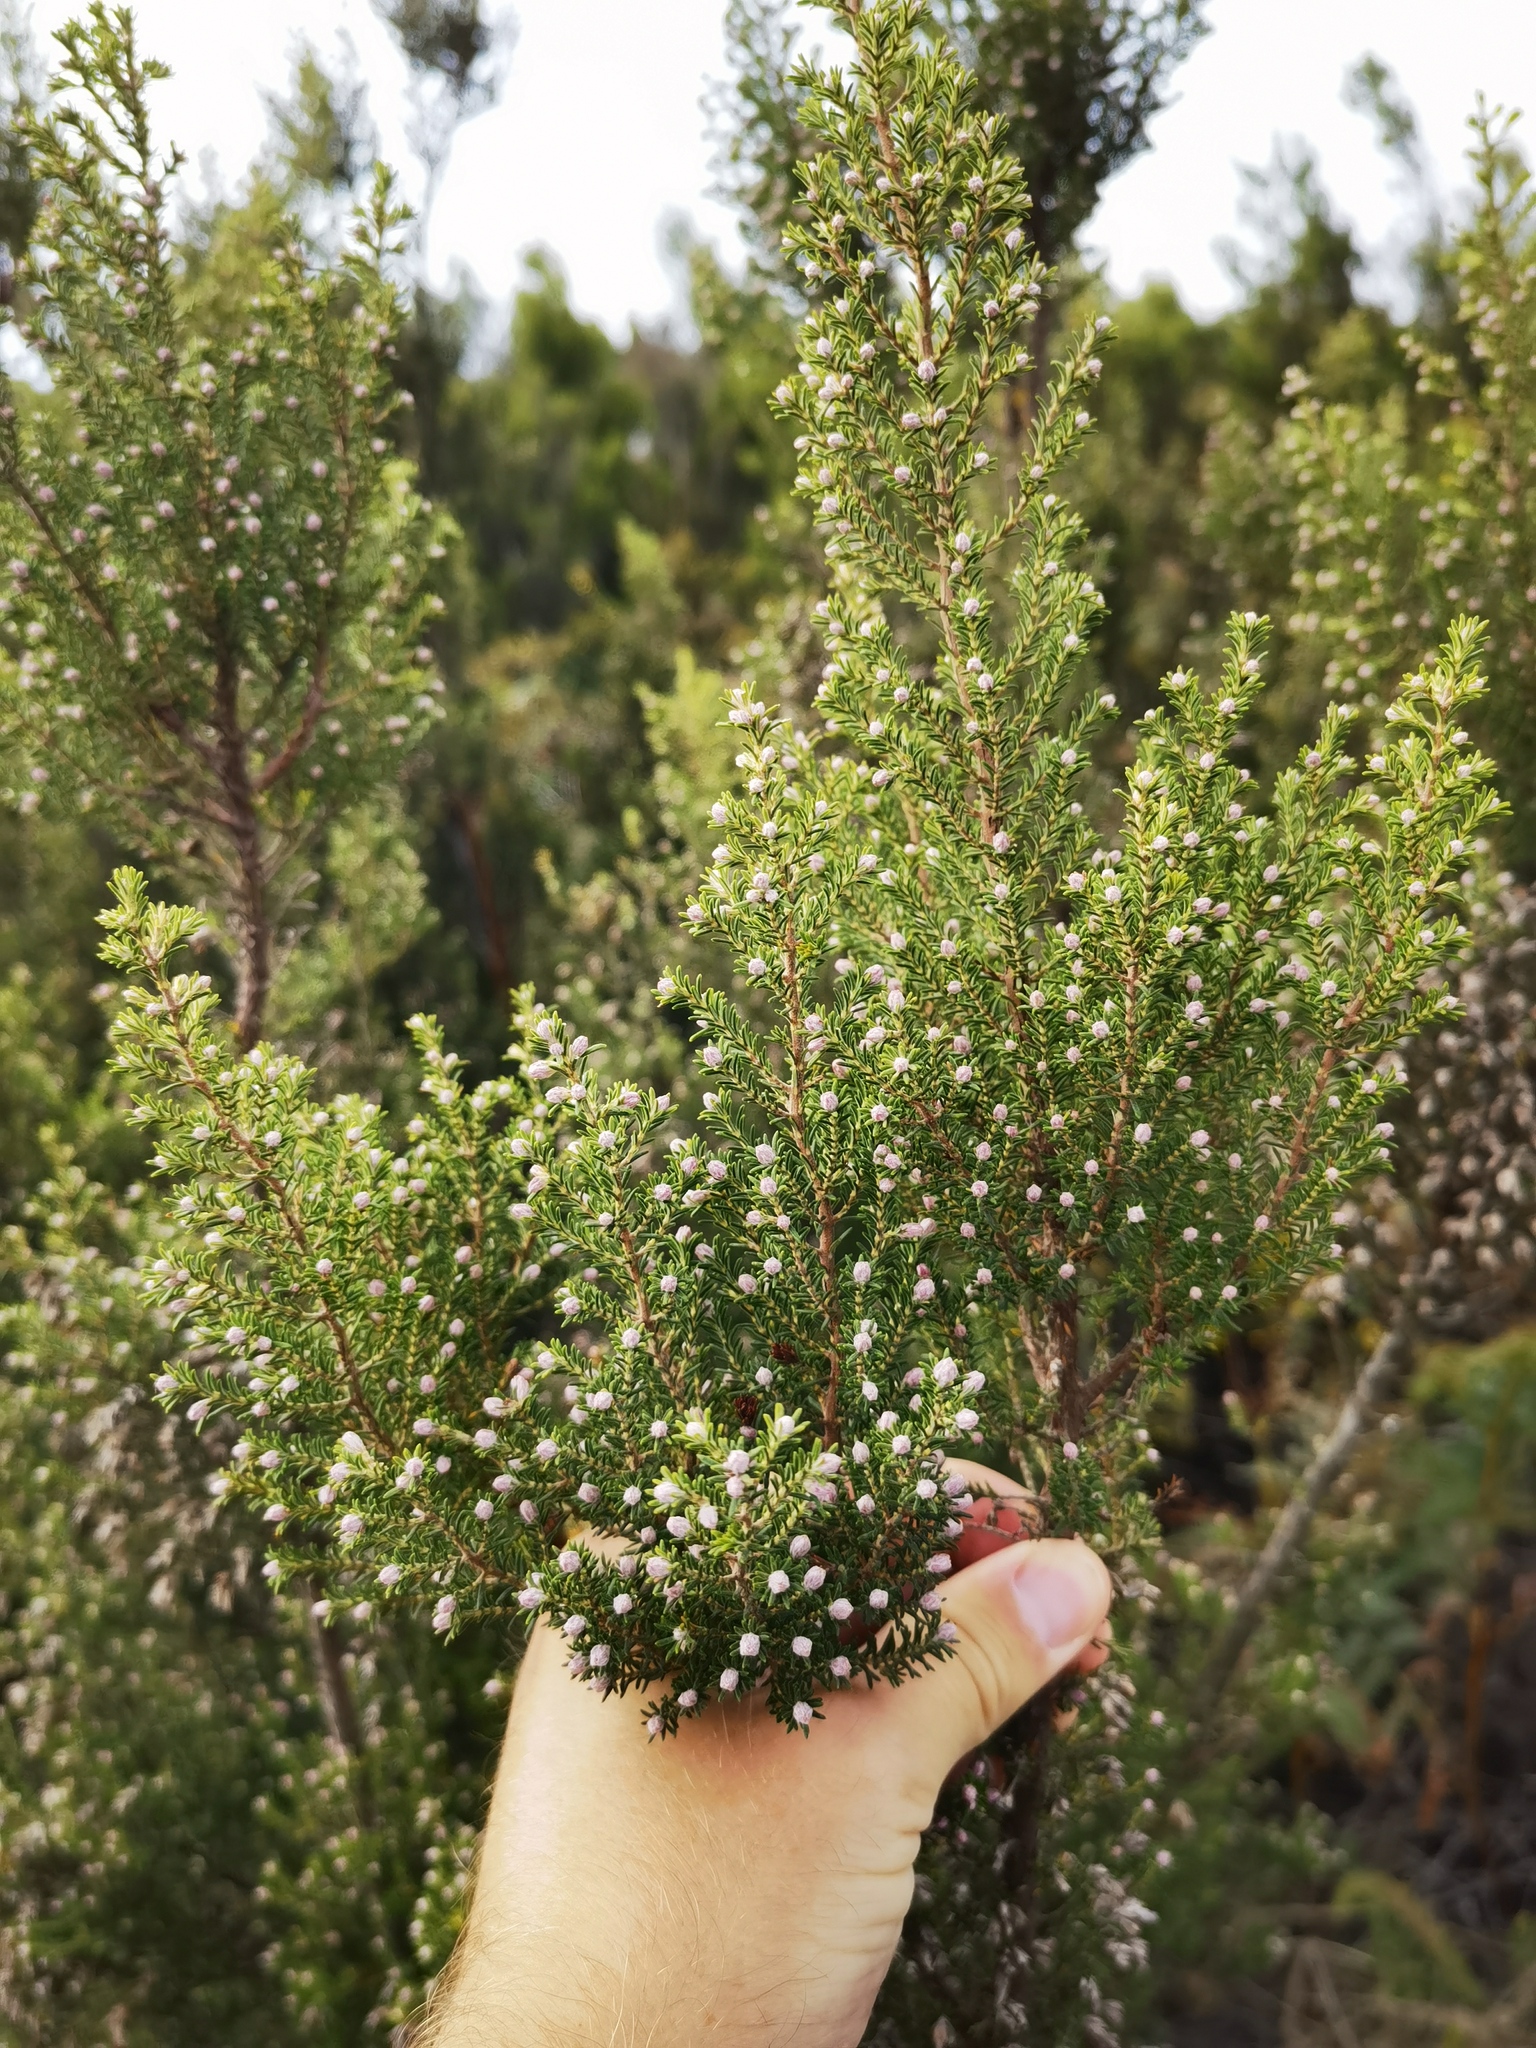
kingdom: Plantae
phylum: Tracheophyta
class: Magnoliopsida
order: Ericales
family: Ericaceae
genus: Erica
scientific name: Erica arborea
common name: Tree heath
